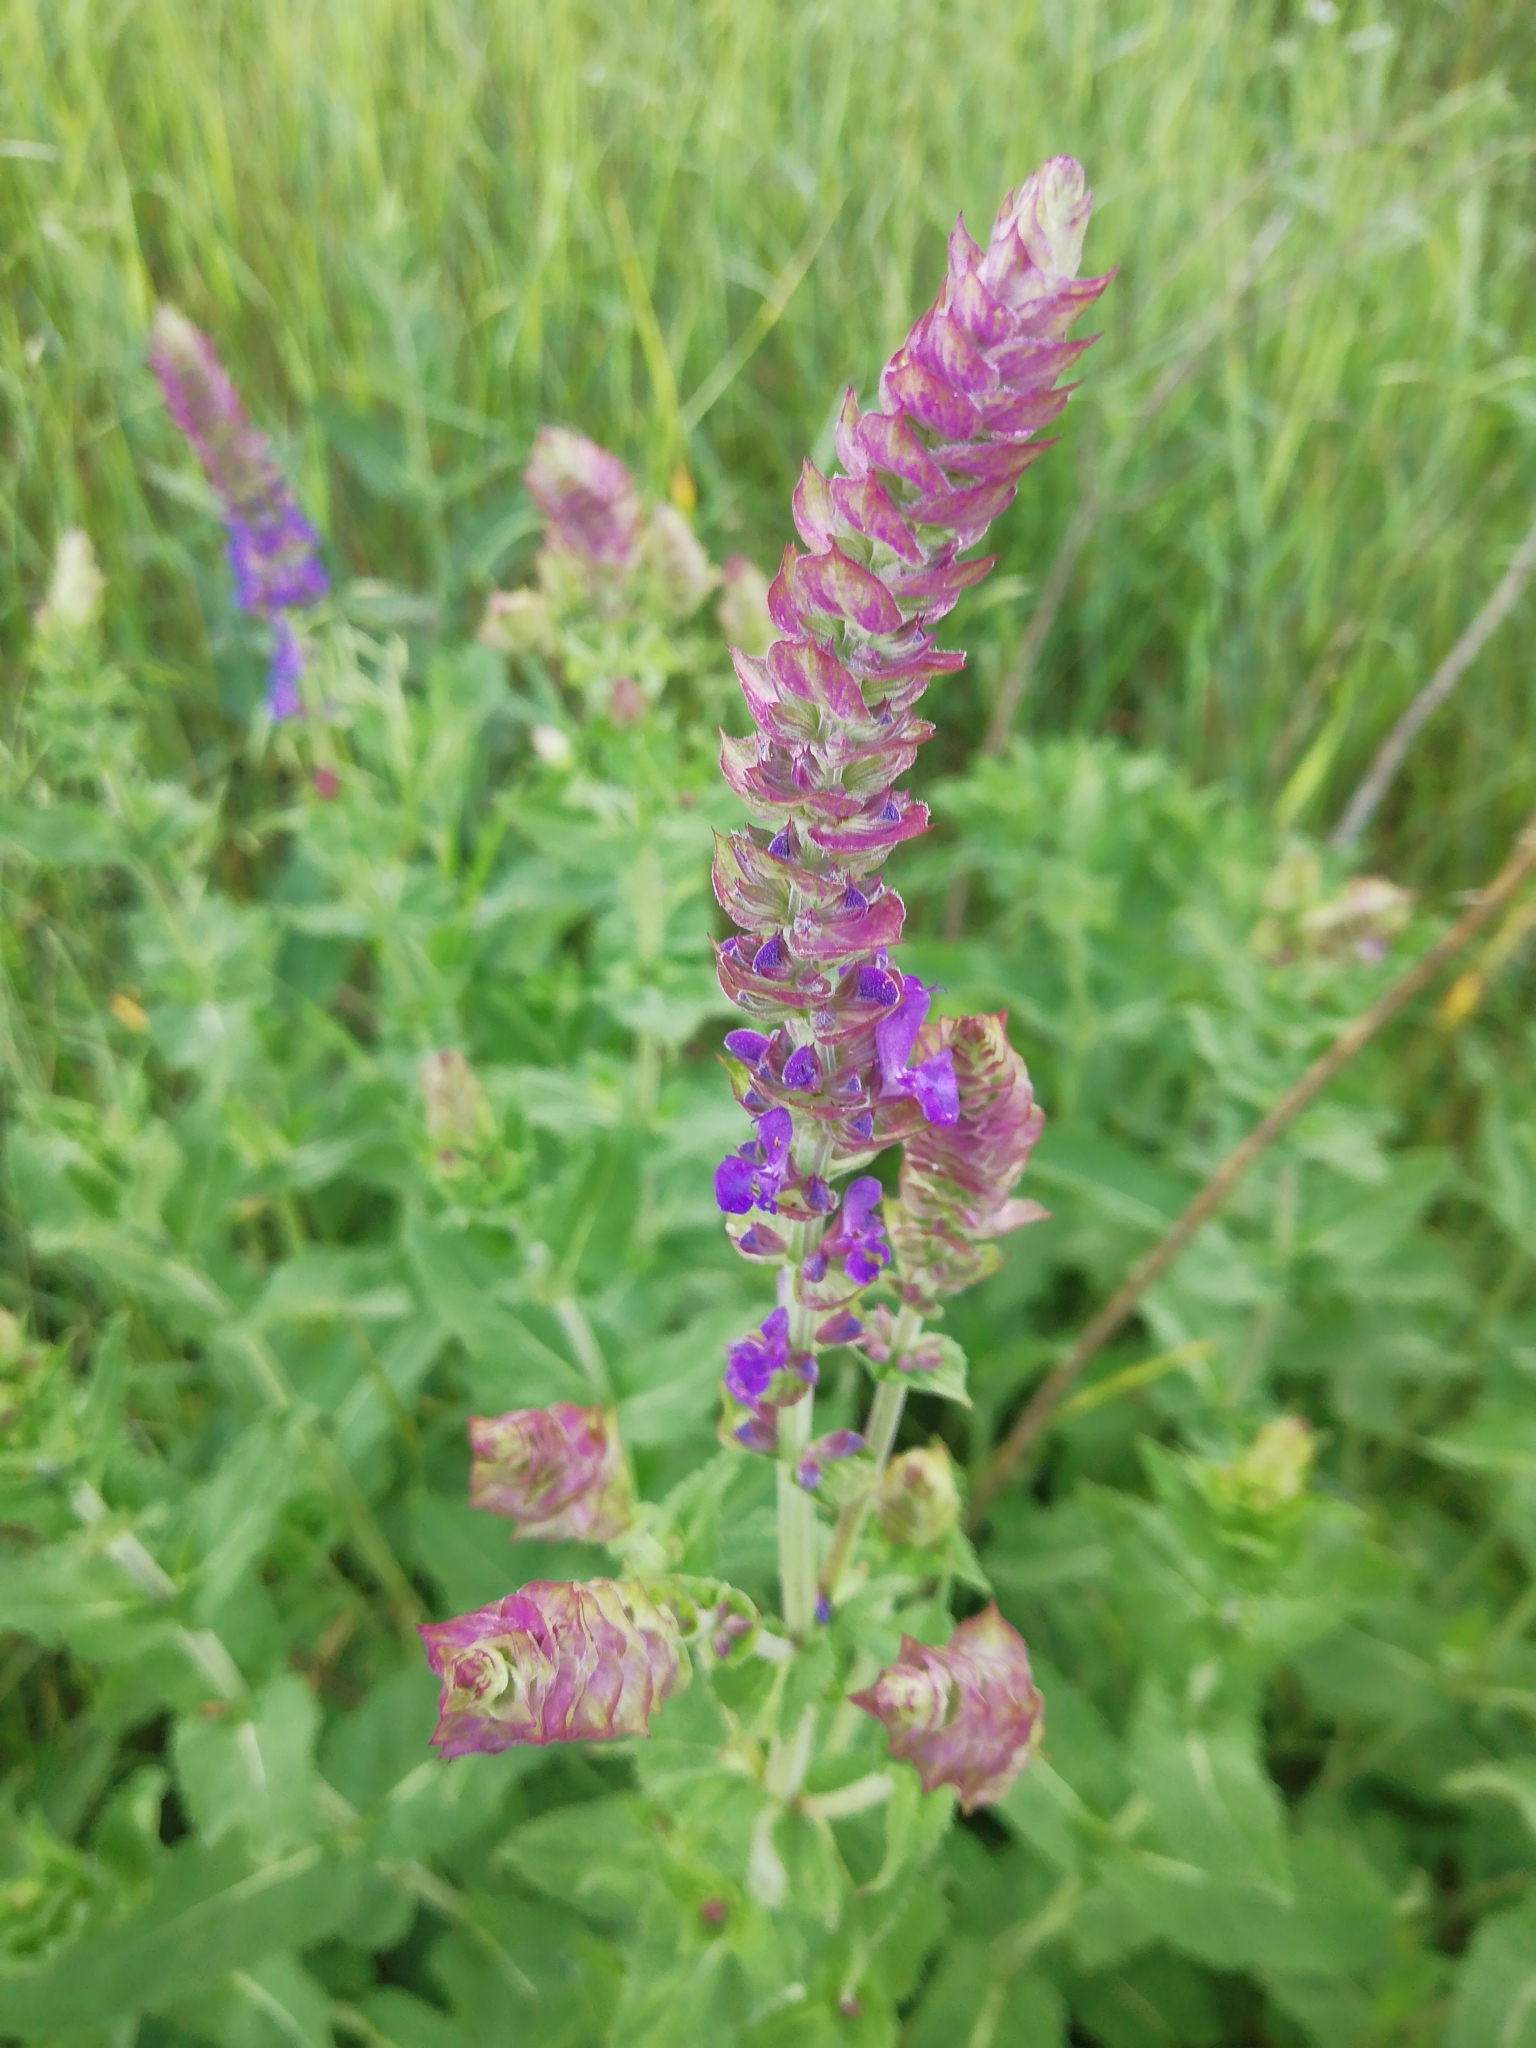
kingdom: Plantae
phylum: Tracheophyta
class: Magnoliopsida
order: Lamiales
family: Lamiaceae
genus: Salvia
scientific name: Salvia nemorosa
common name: Balkan clary
